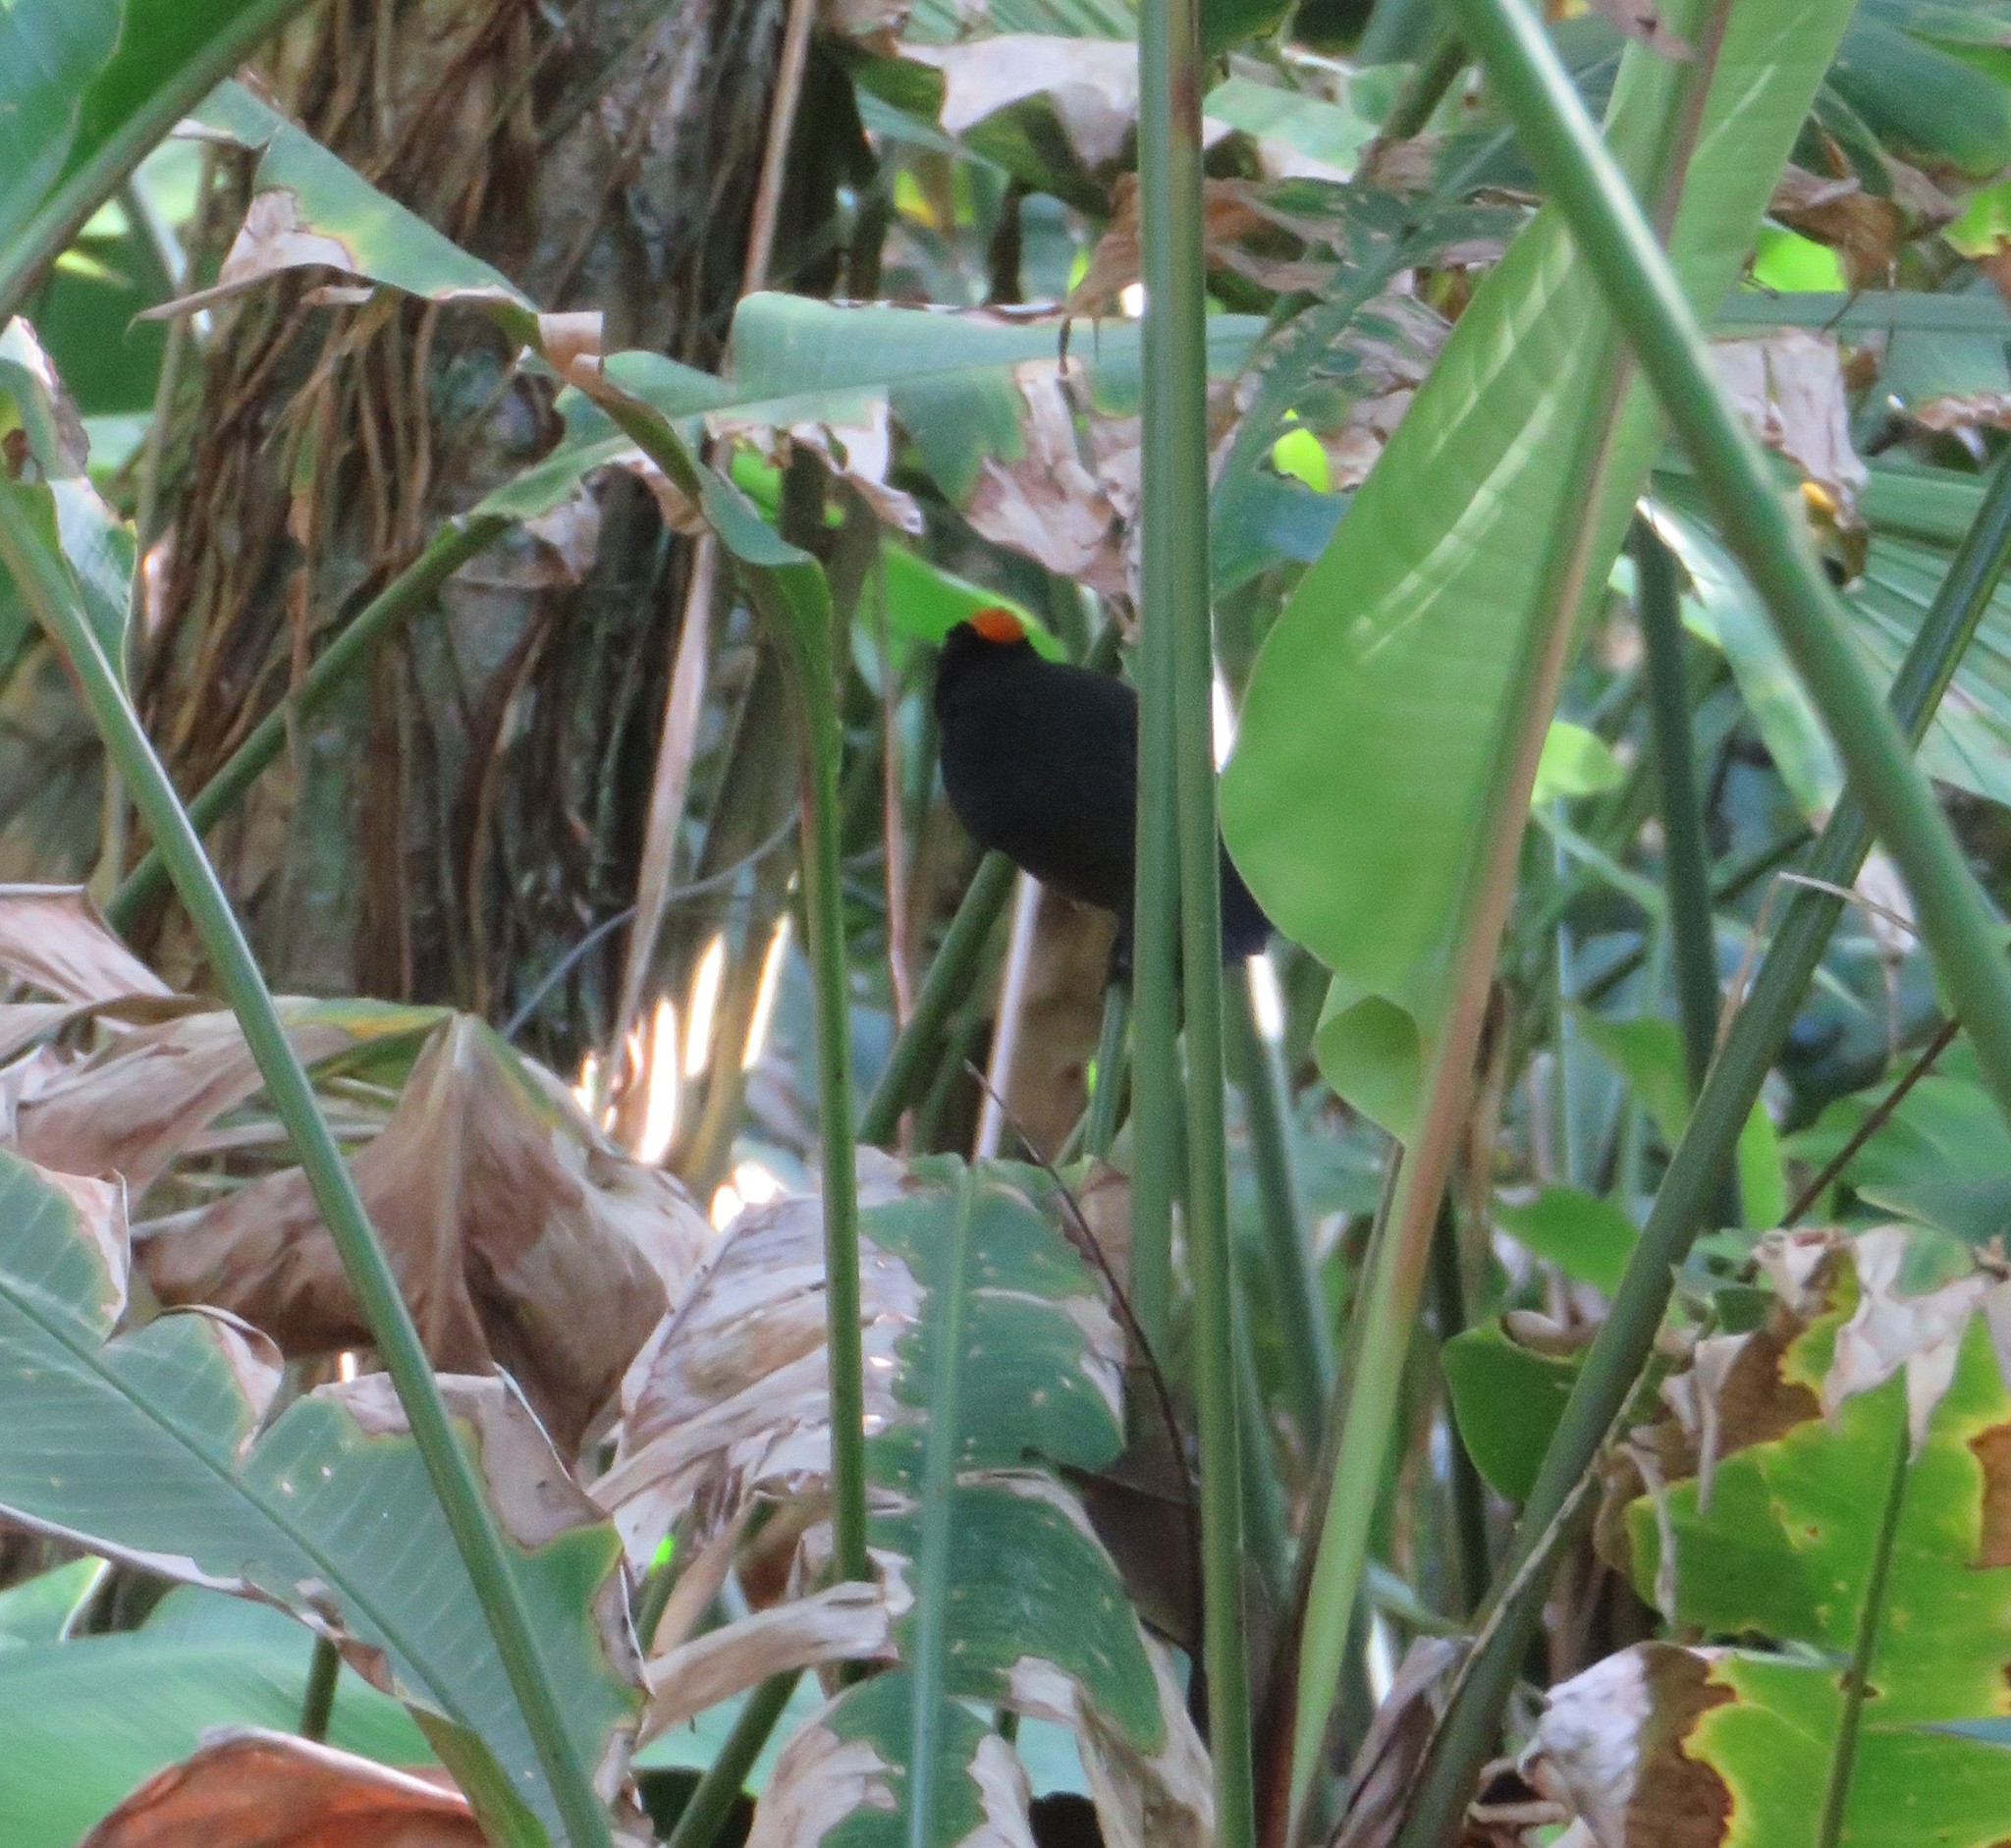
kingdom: Animalia
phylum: Chordata
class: Aves
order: Passeriformes
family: Thraupidae
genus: Tachyphonus
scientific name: Tachyphonus delatrii
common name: Tawny-crested tanager
